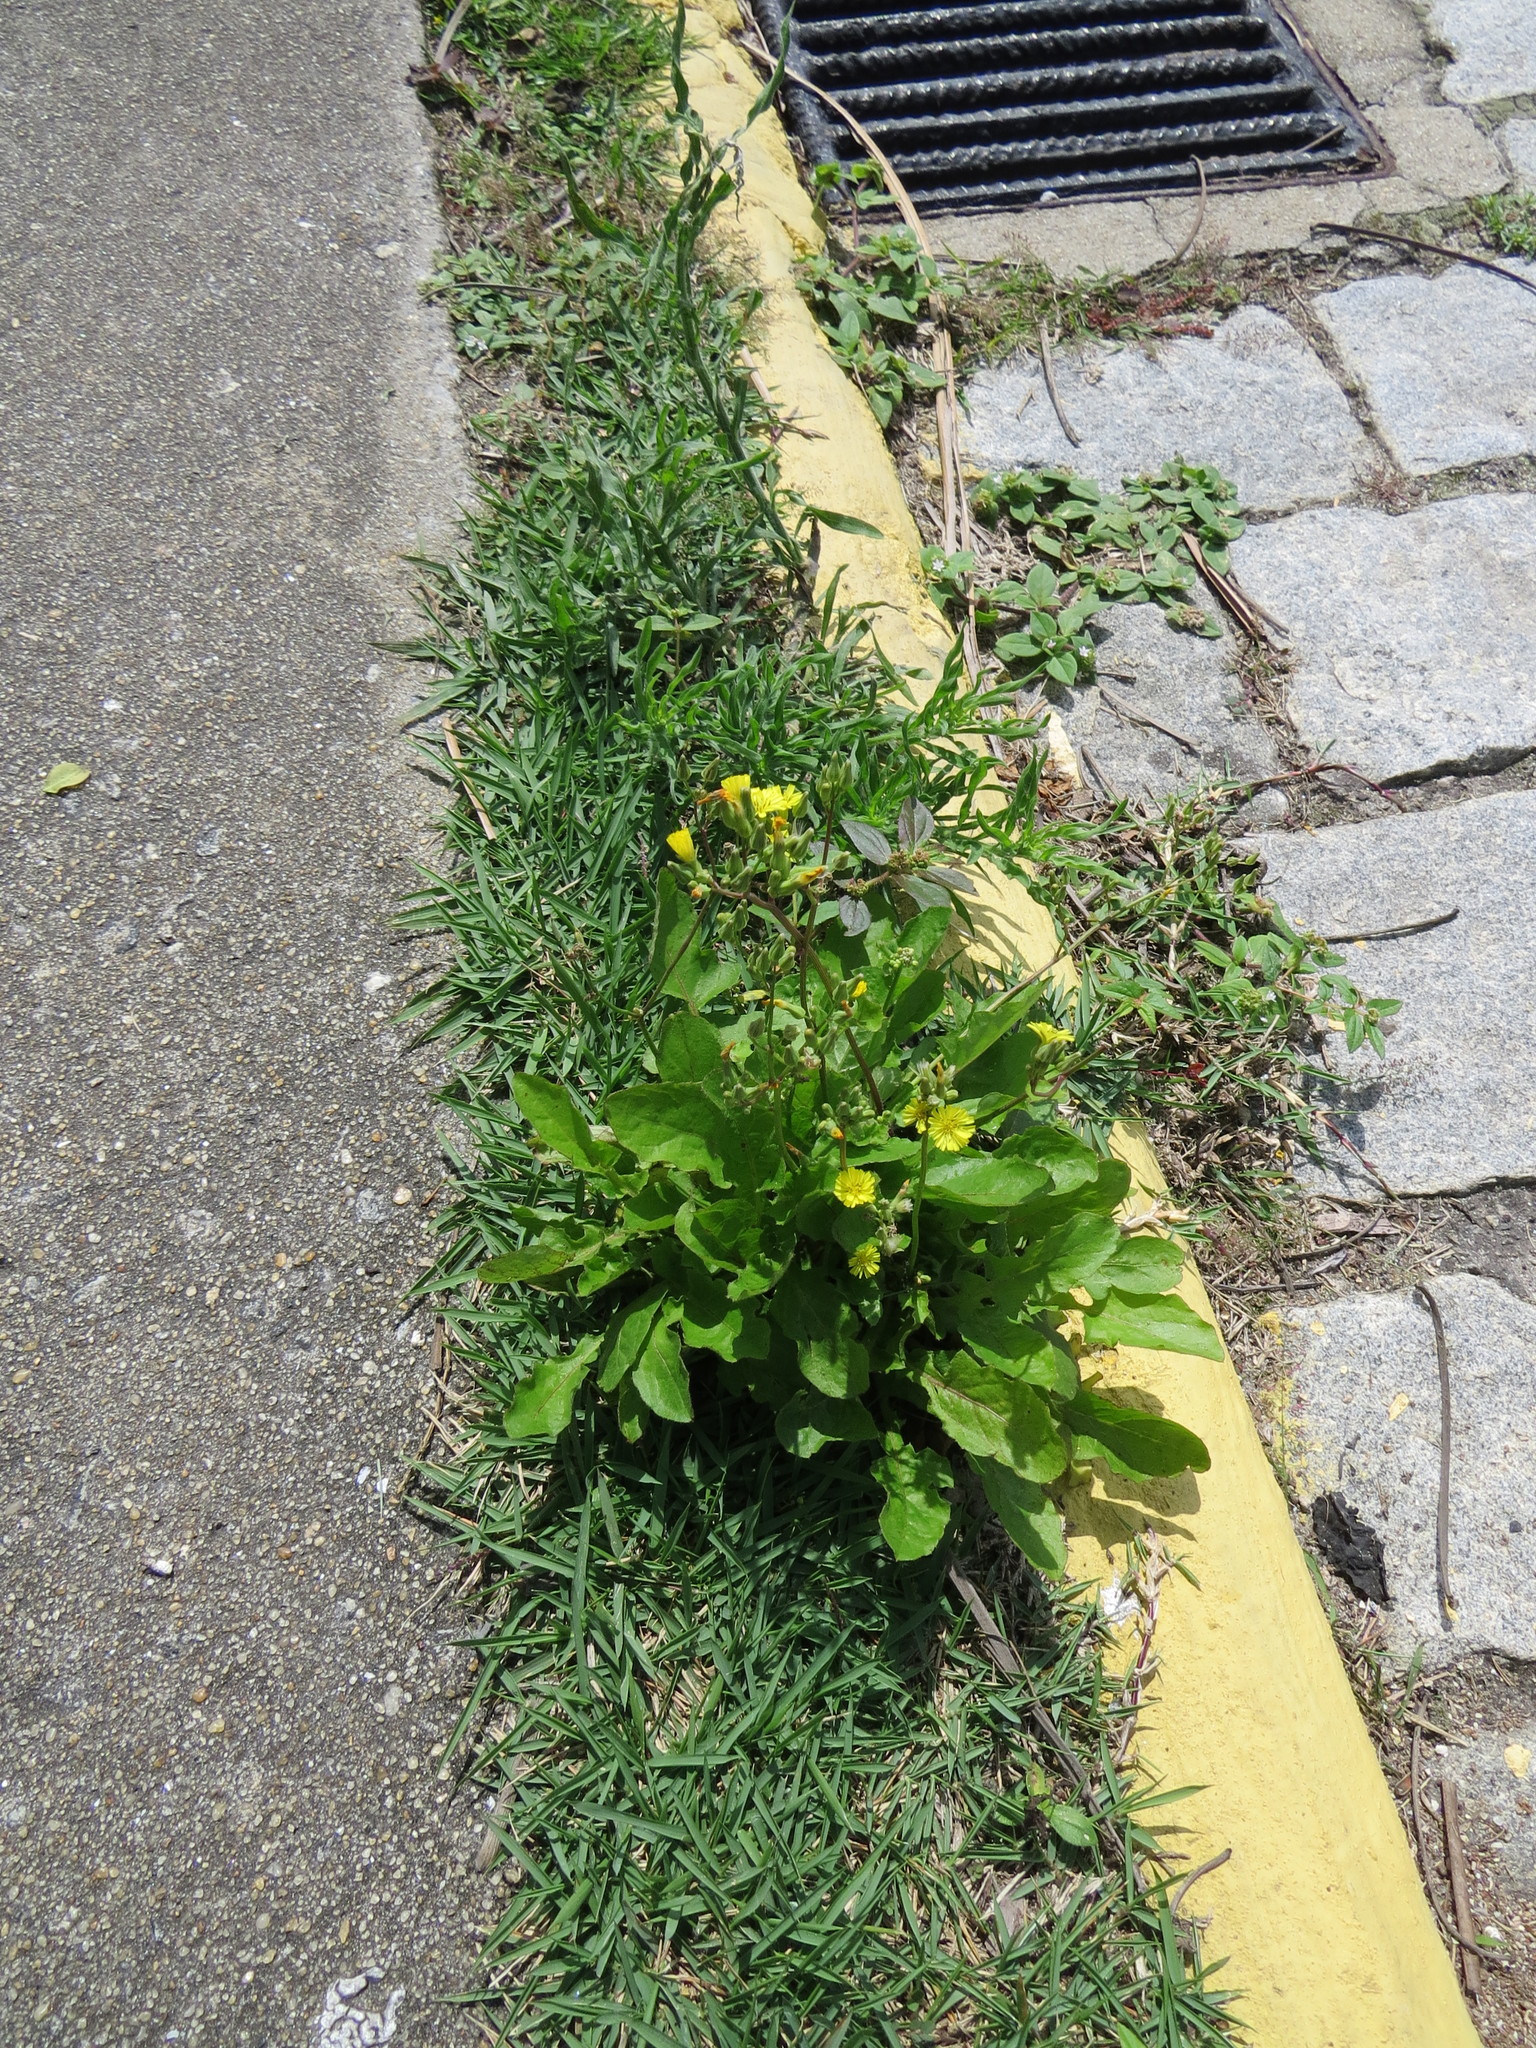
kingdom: Plantae
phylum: Tracheophyta
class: Magnoliopsida
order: Asterales
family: Asteraceae
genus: Youngia
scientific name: Youngia japonica
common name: Oriental false hawksbeard
